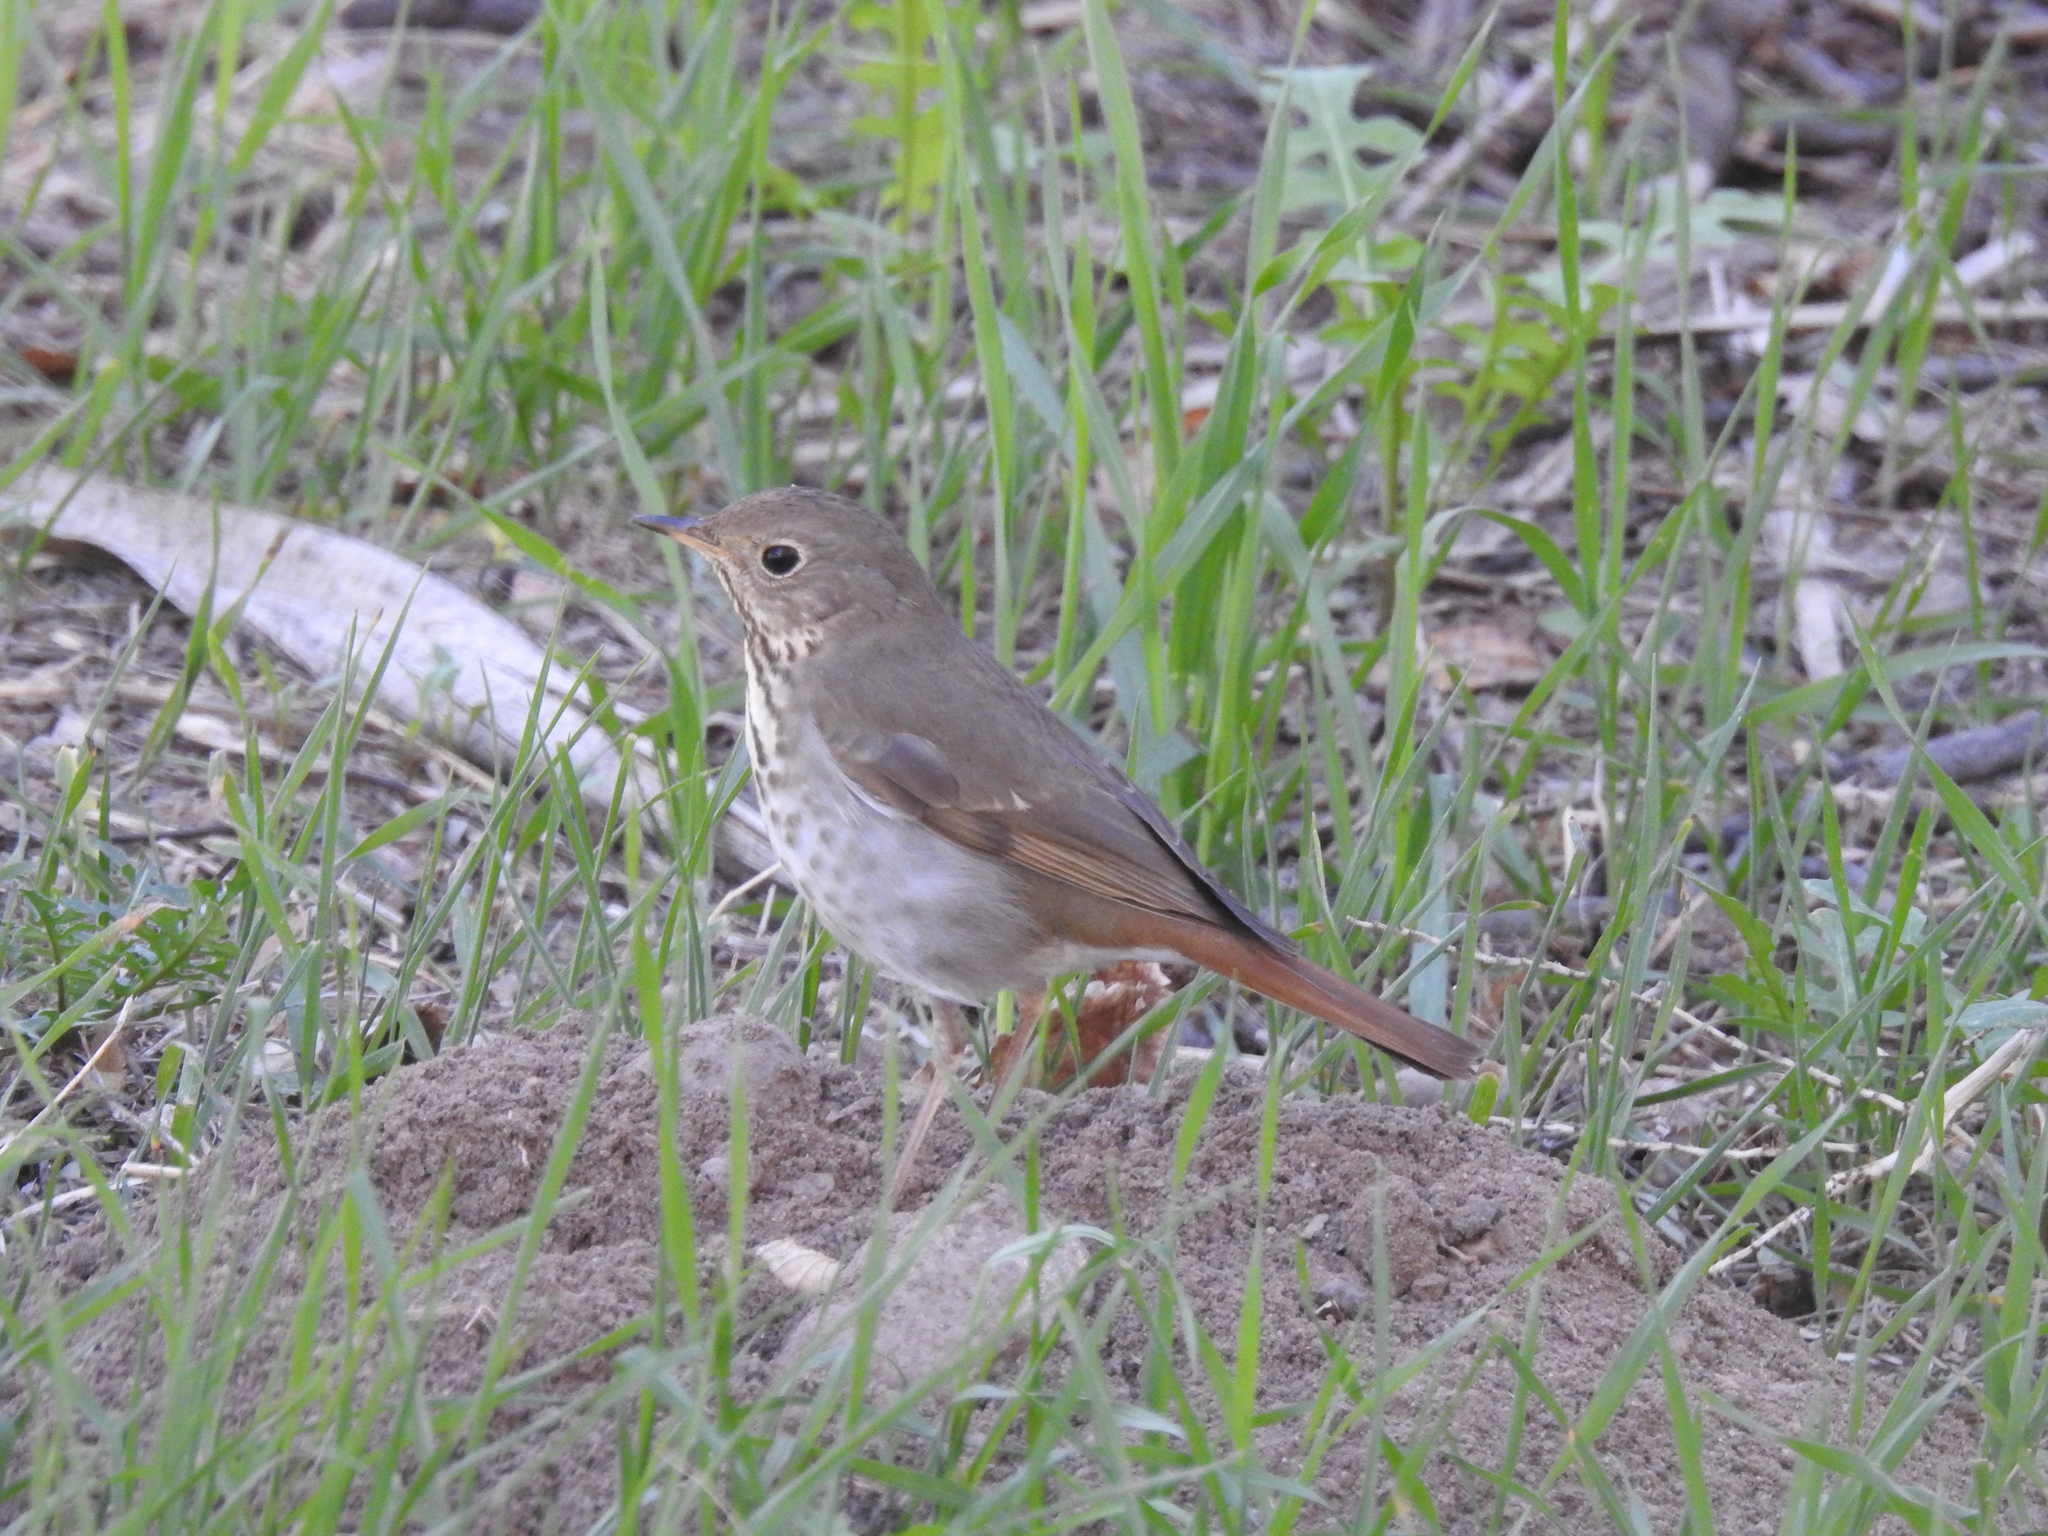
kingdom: Animalia
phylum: Chordata
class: Aves
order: Passeriformes
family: Turdidae
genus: Catharus
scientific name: Catharus guttatus
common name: Hermit thrush
